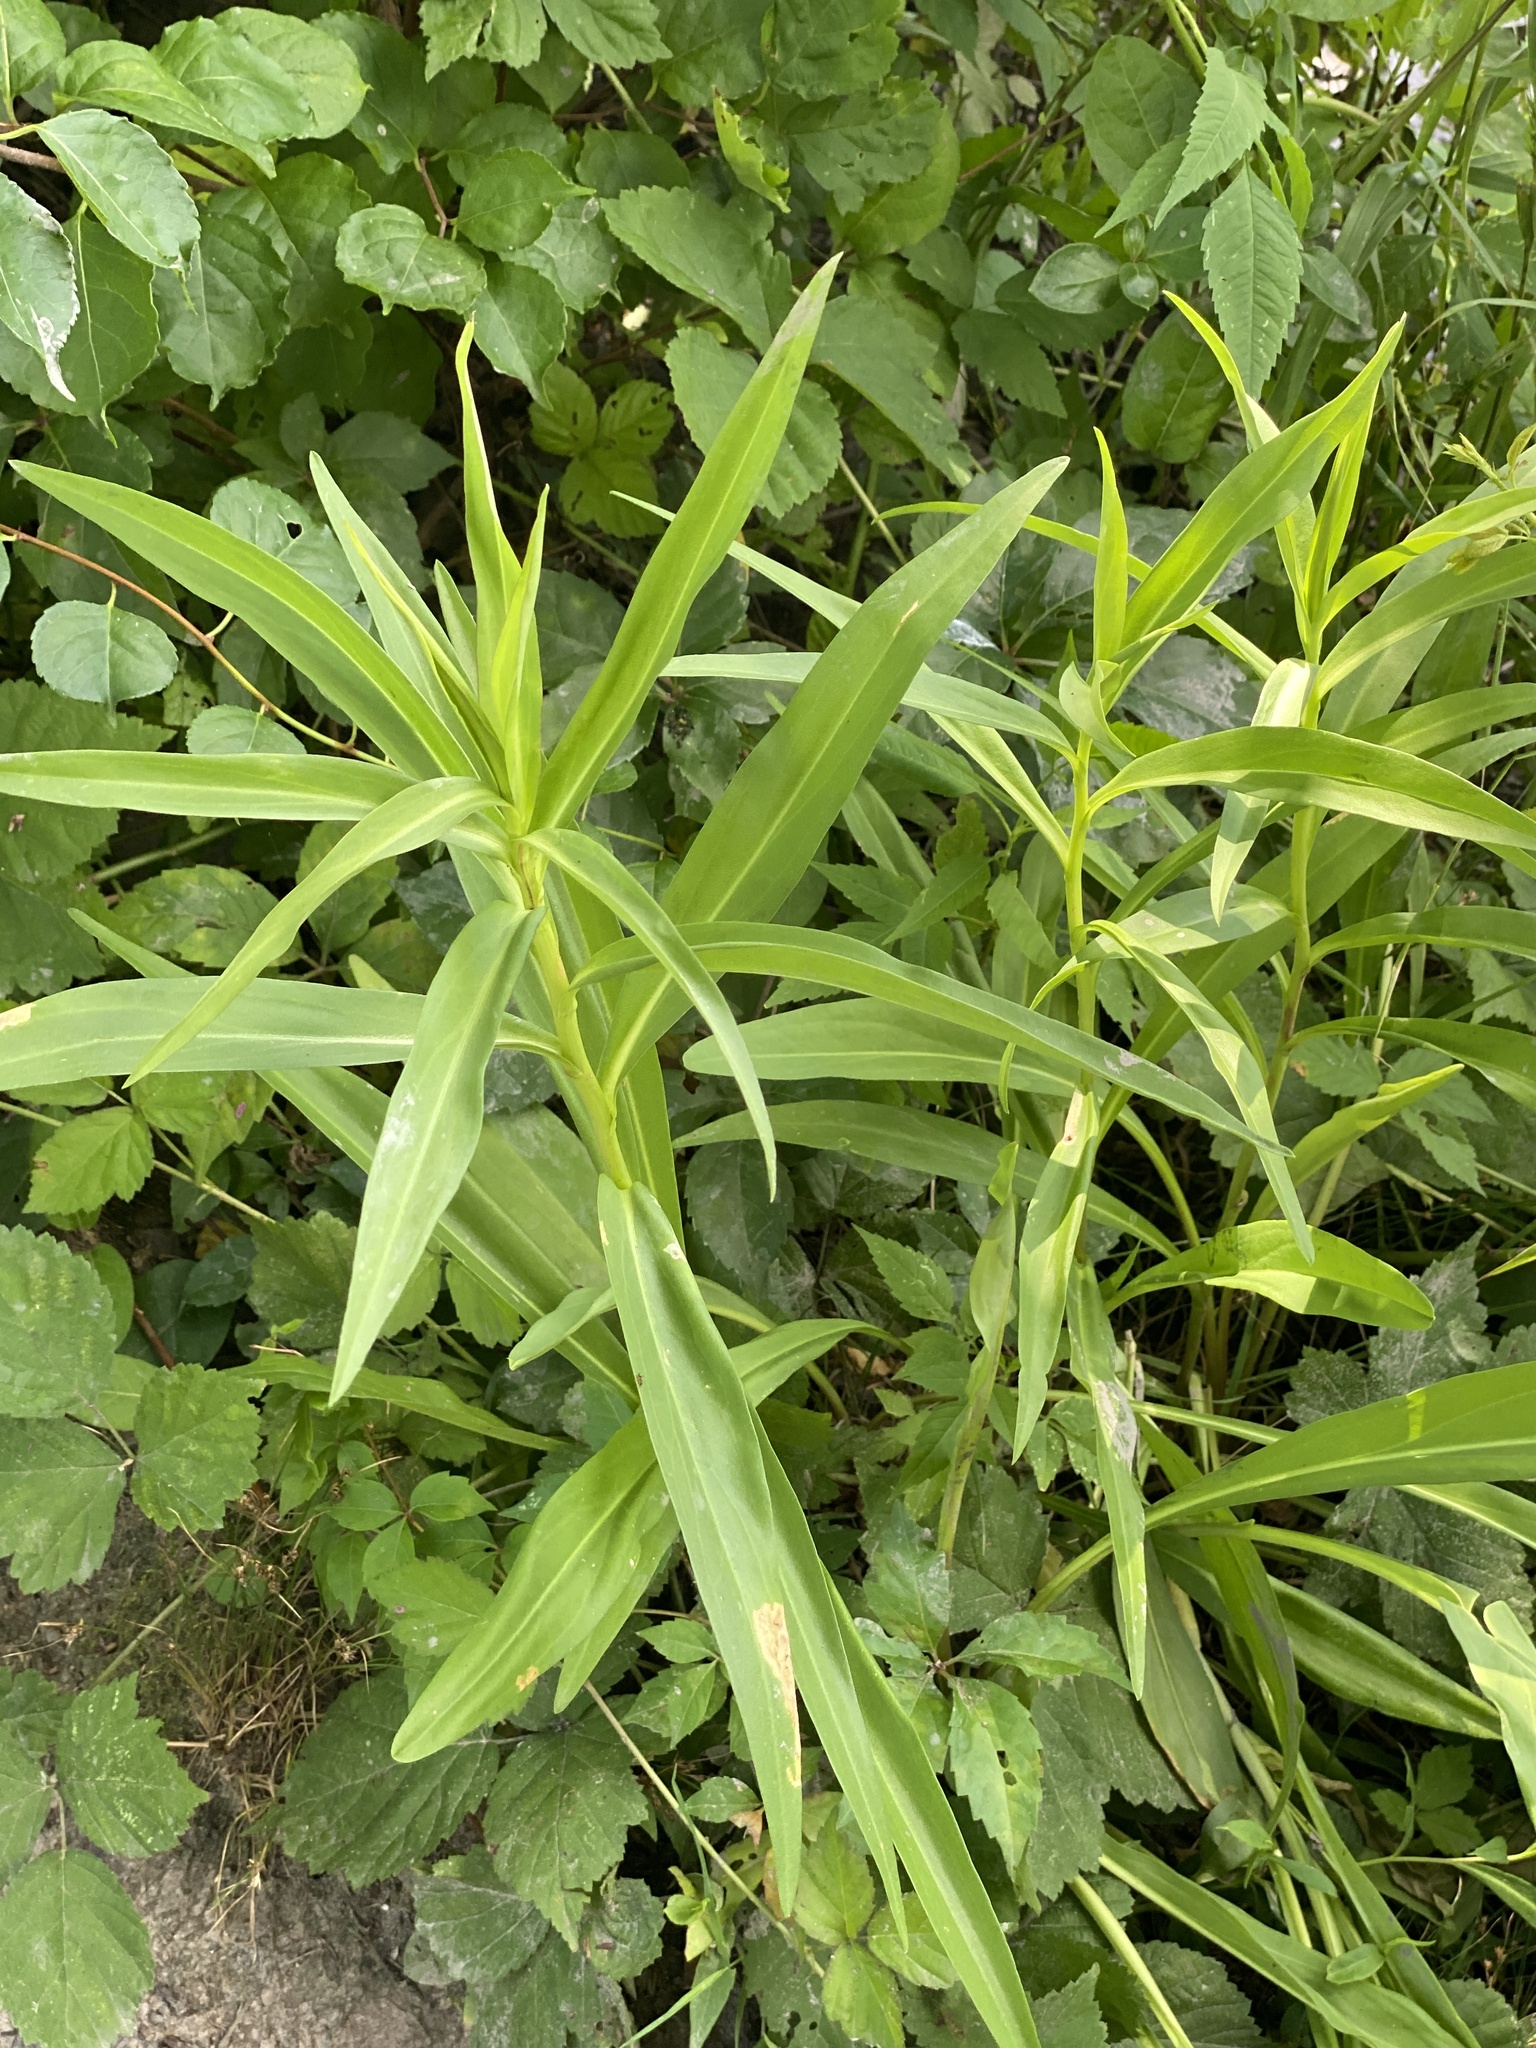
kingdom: Plantae
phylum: Tracheophyta
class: Magnoliopsida
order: Asterales
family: Asteraceae
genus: Solidago
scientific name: Solidago sempervirens
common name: Salt-marsh goldenrod
